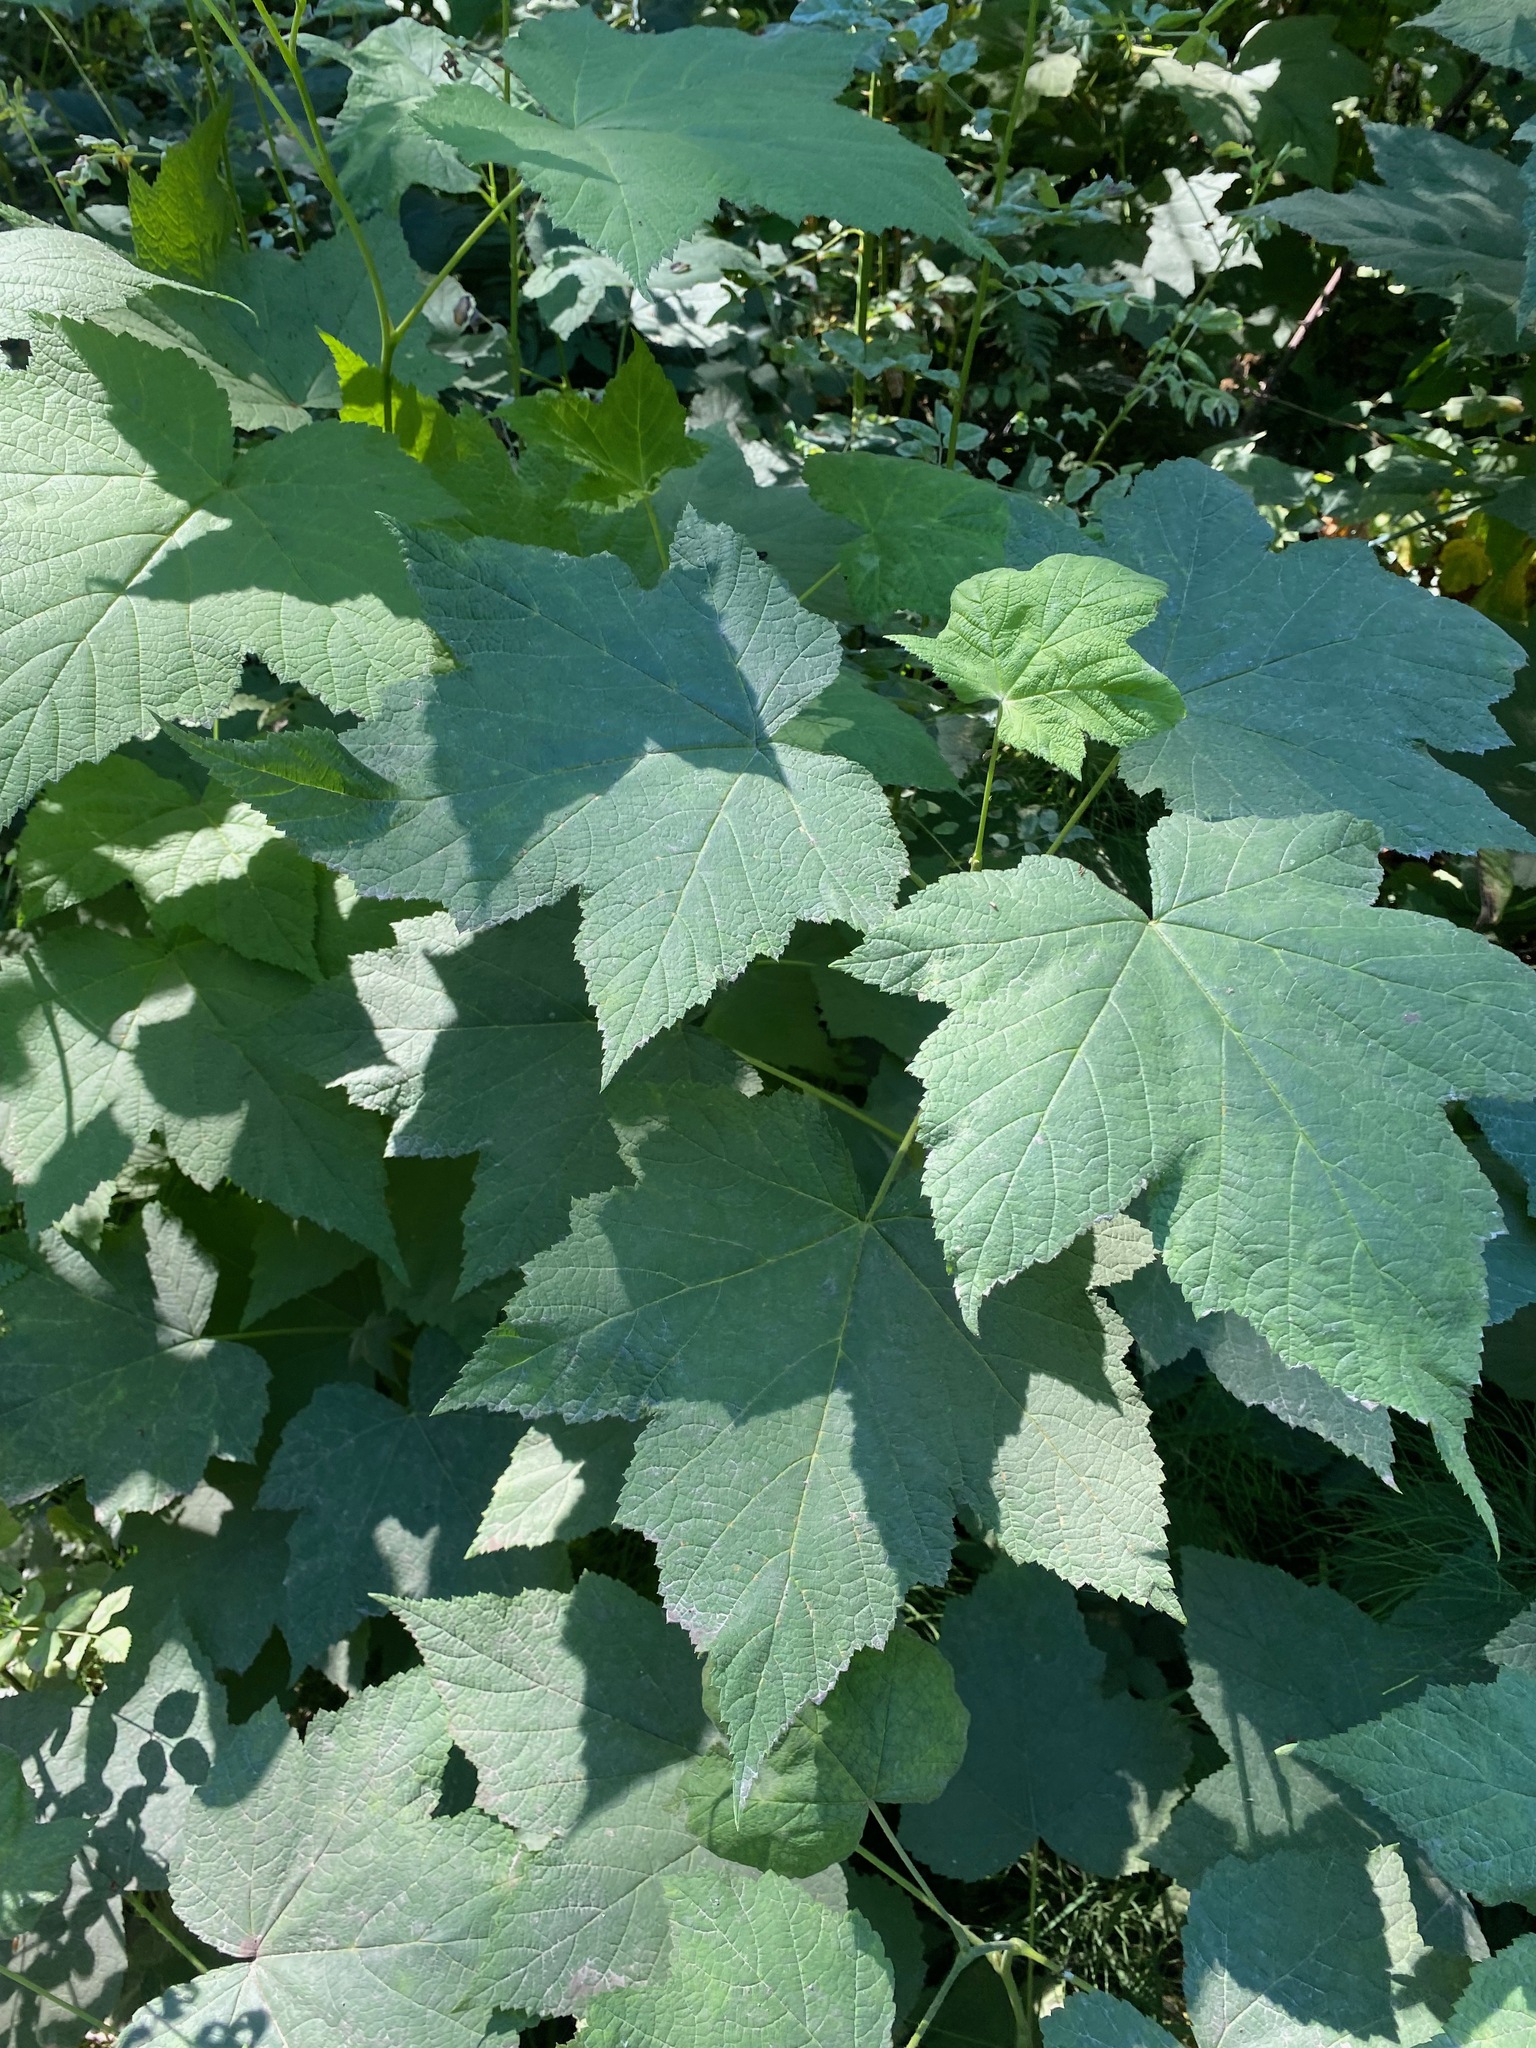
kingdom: Plantae
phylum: Tracheophyta
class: Magnoliopsida
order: Rosales
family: Rosaceae
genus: Rubus
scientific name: Rubus parviflorus
